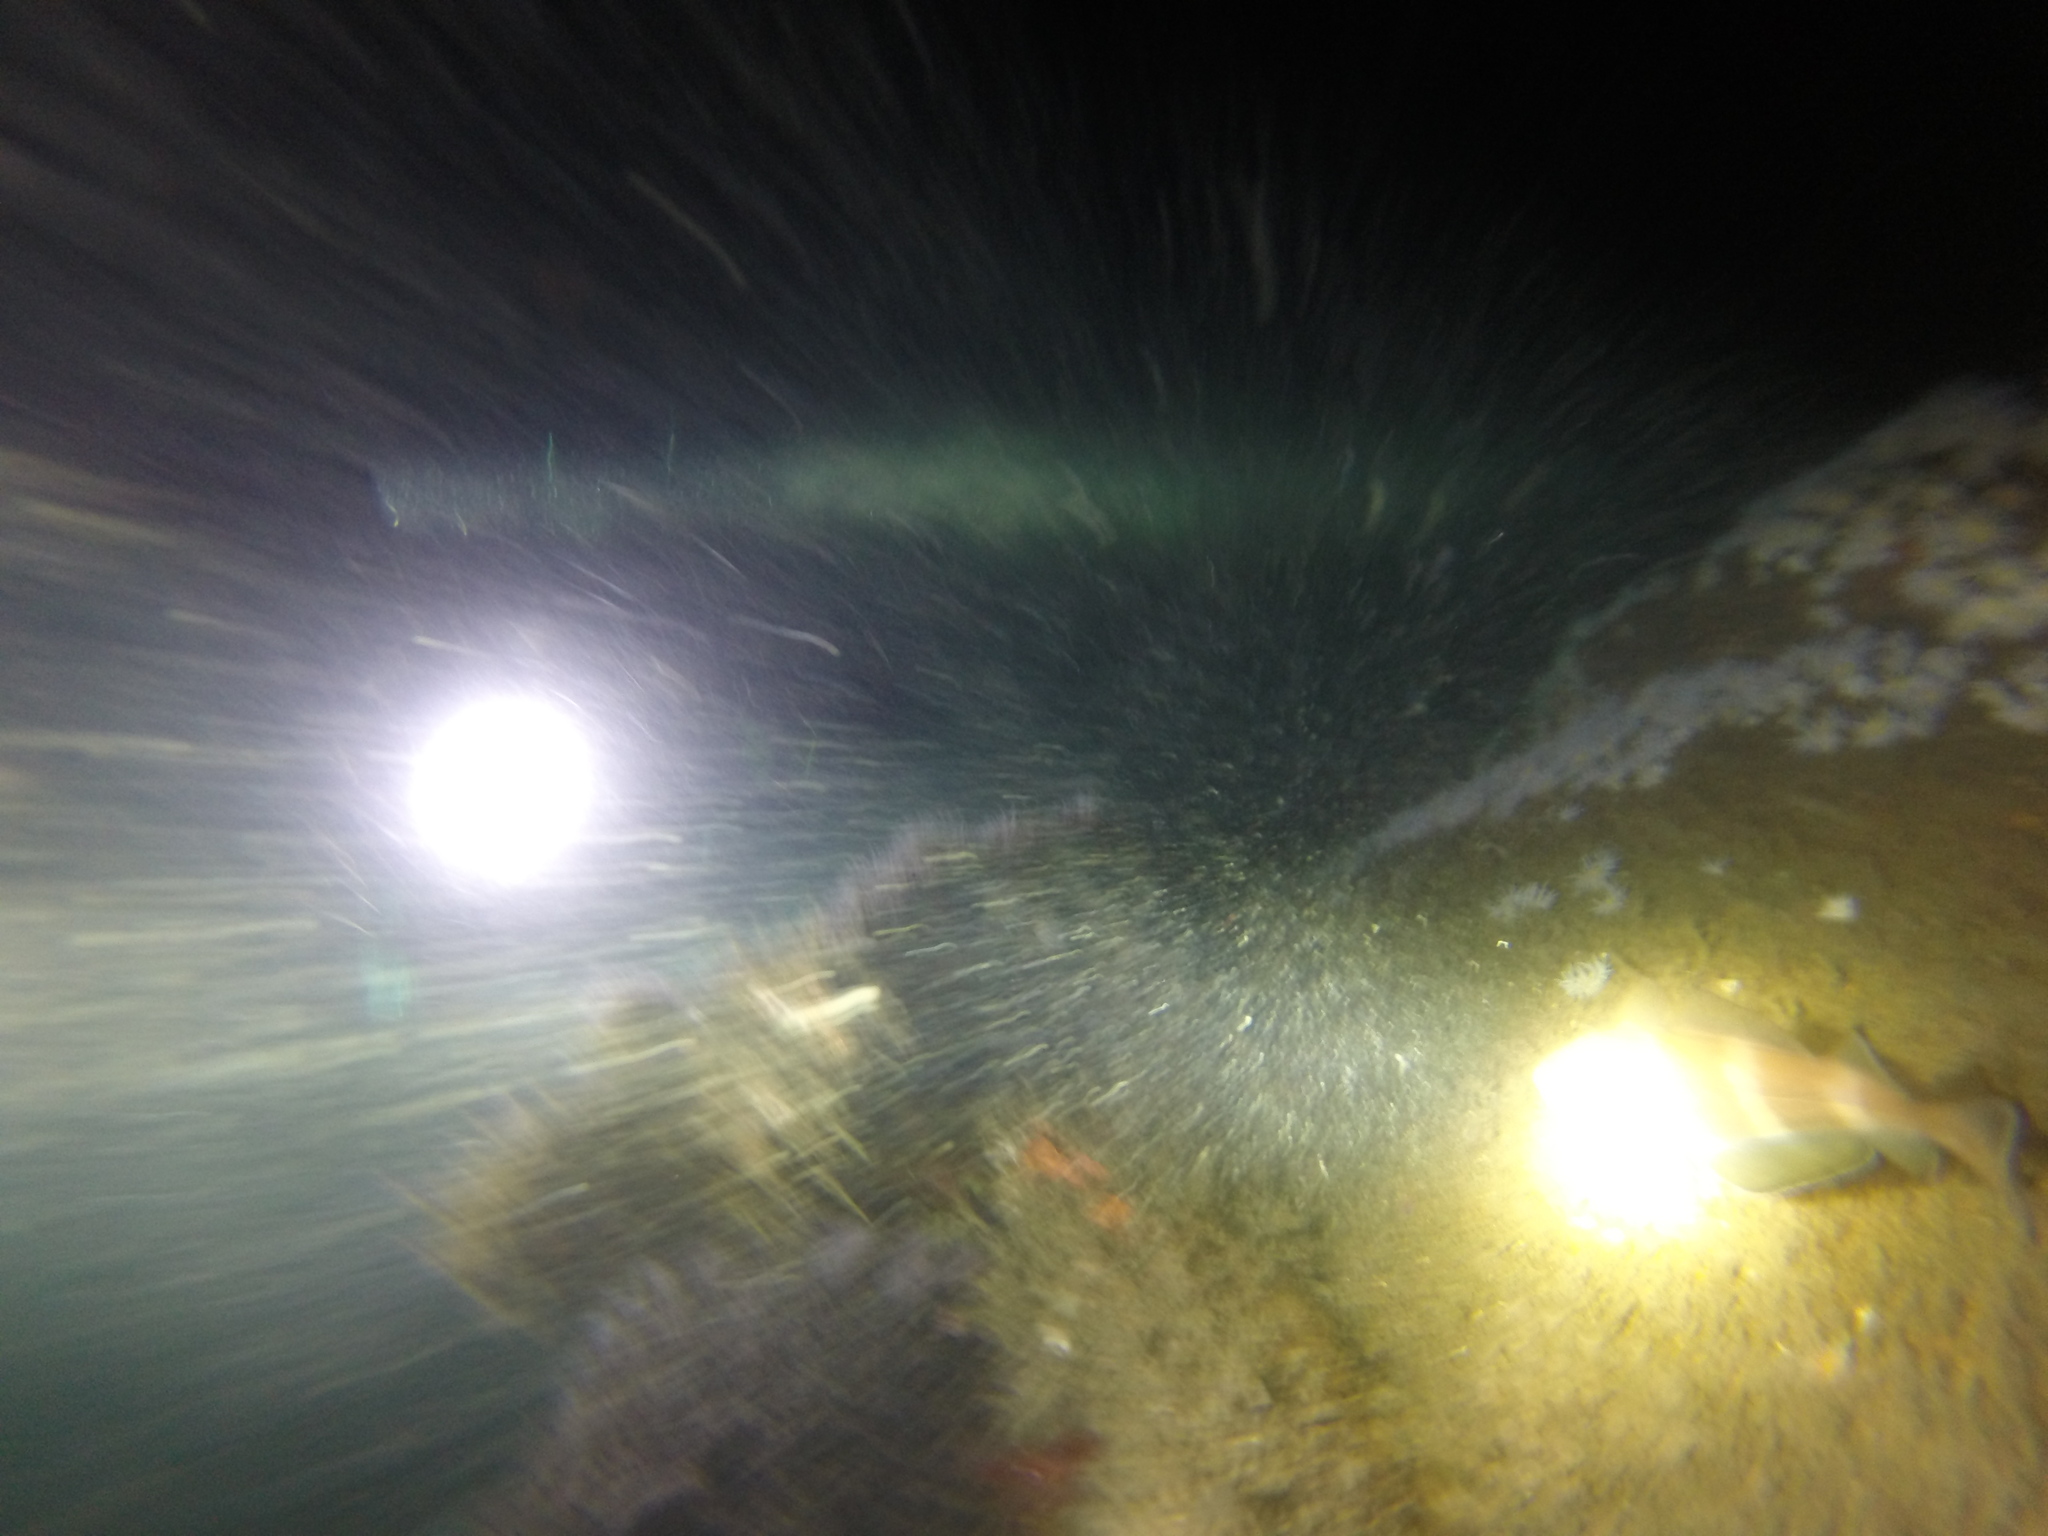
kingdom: Animalia
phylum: Chordata
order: Gadiformes
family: Gadidae
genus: Trisopterus
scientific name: Trisopterus luscus
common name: Bib
